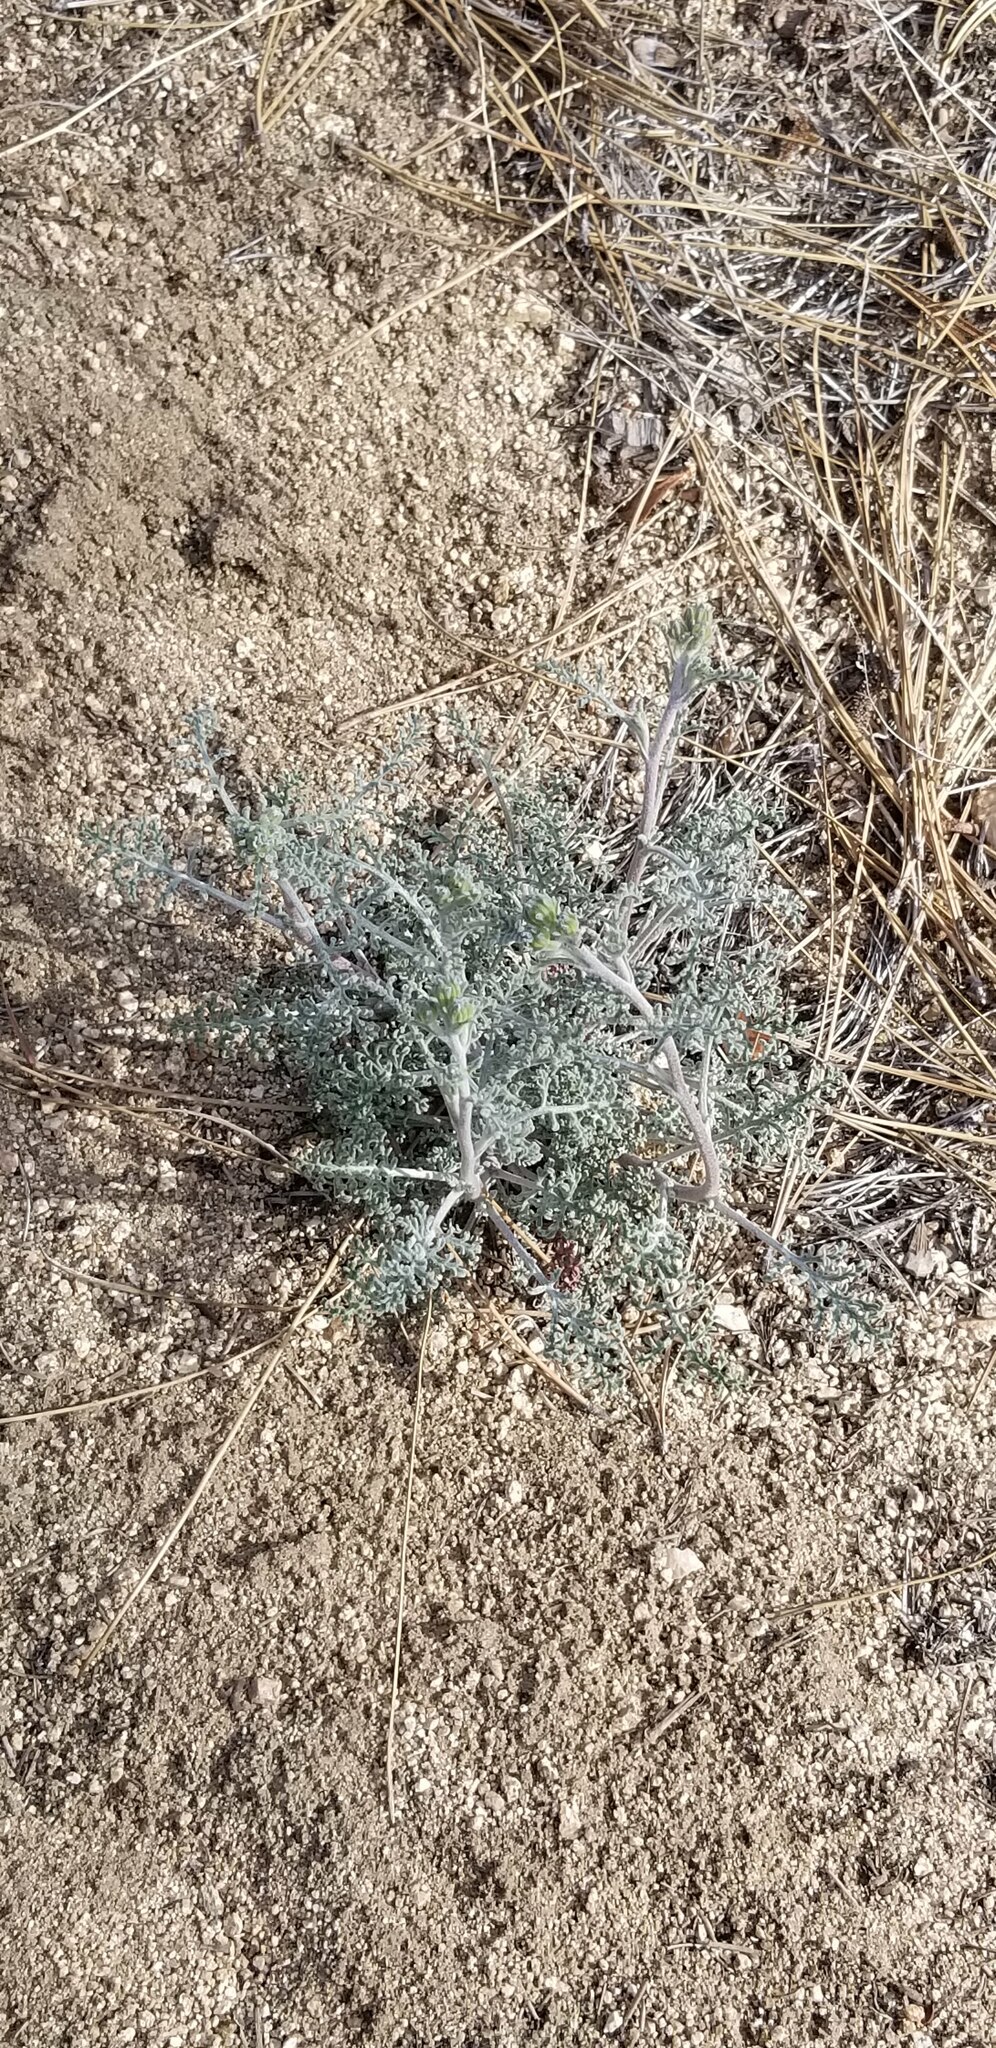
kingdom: Plantae
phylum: Tracheophyta
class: Magnoliopsida
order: Asterales
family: Asteraceae
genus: Chaenactis
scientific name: Chaenactis douglasii
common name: Hoary pincushion
